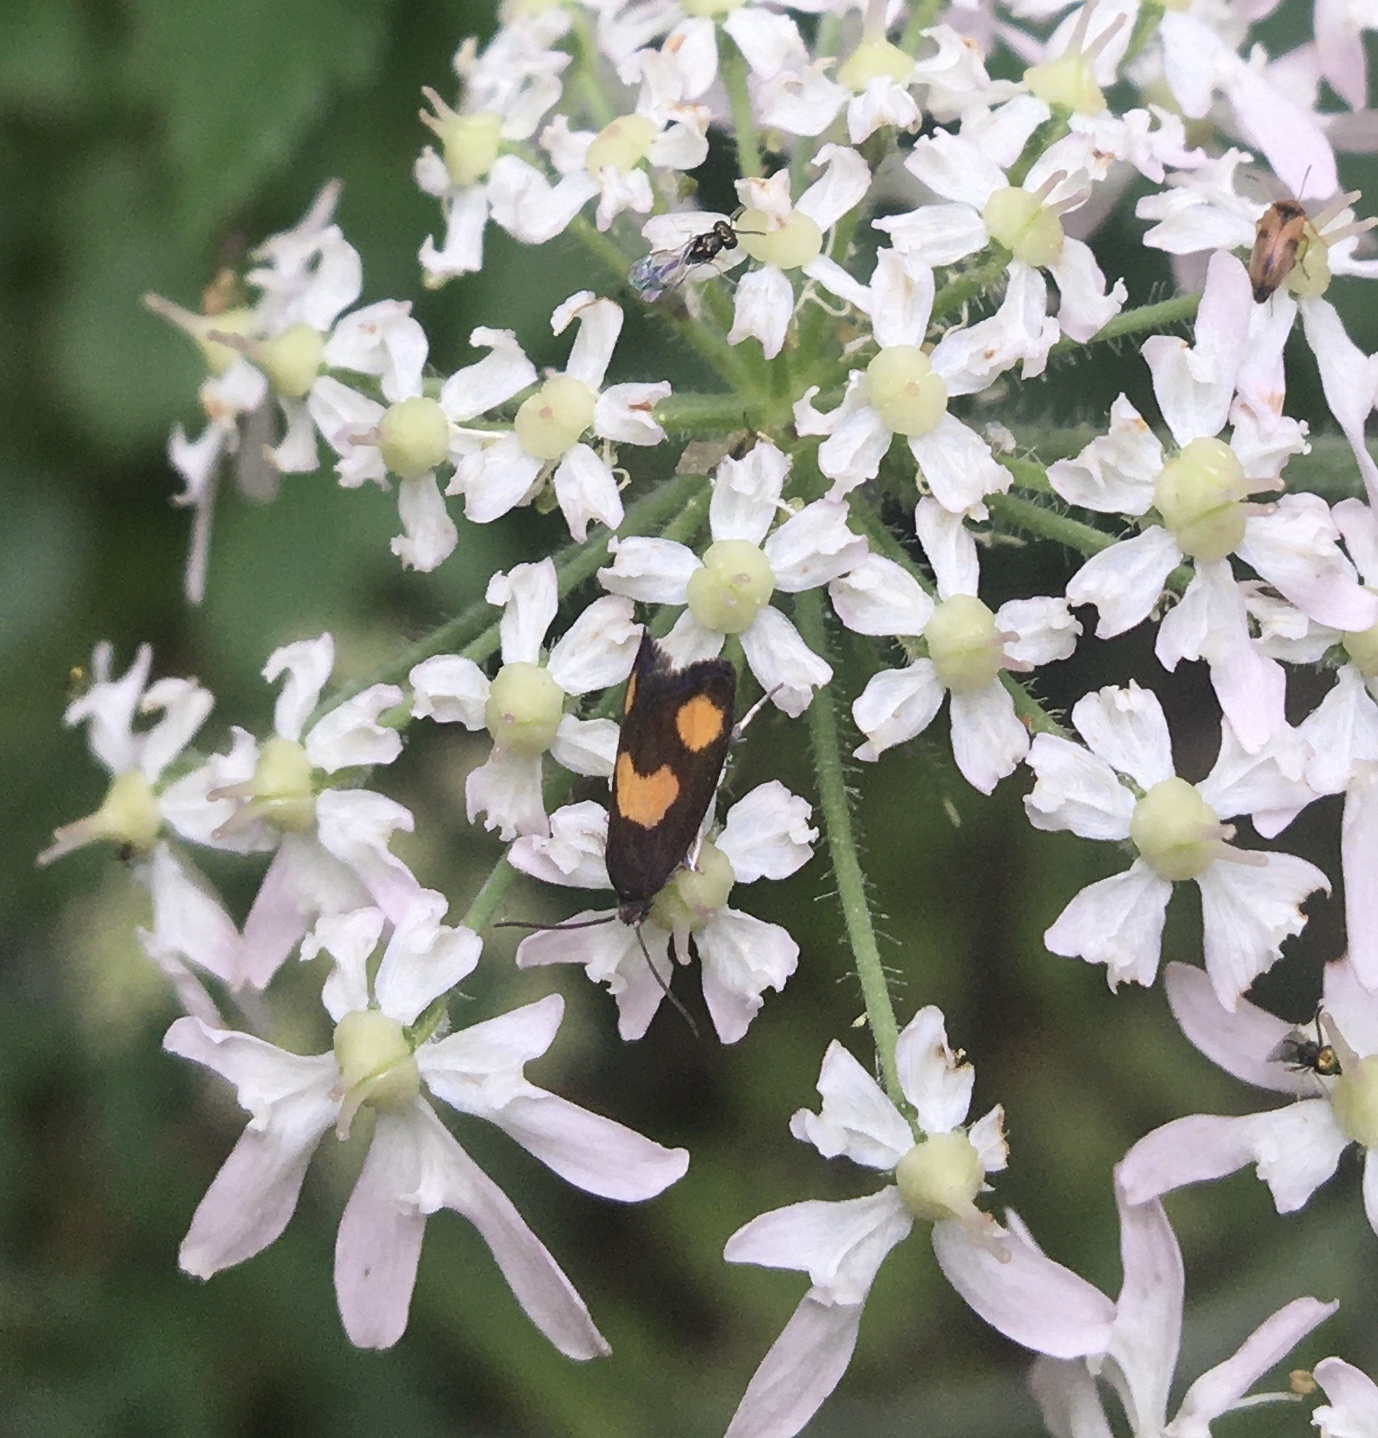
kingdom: Animalia
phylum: Arthropoda
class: Insecta
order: Lepidoptera
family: Tortricidae
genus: Pammene
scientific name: Pammene aurana
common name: Orange-spot piercer
